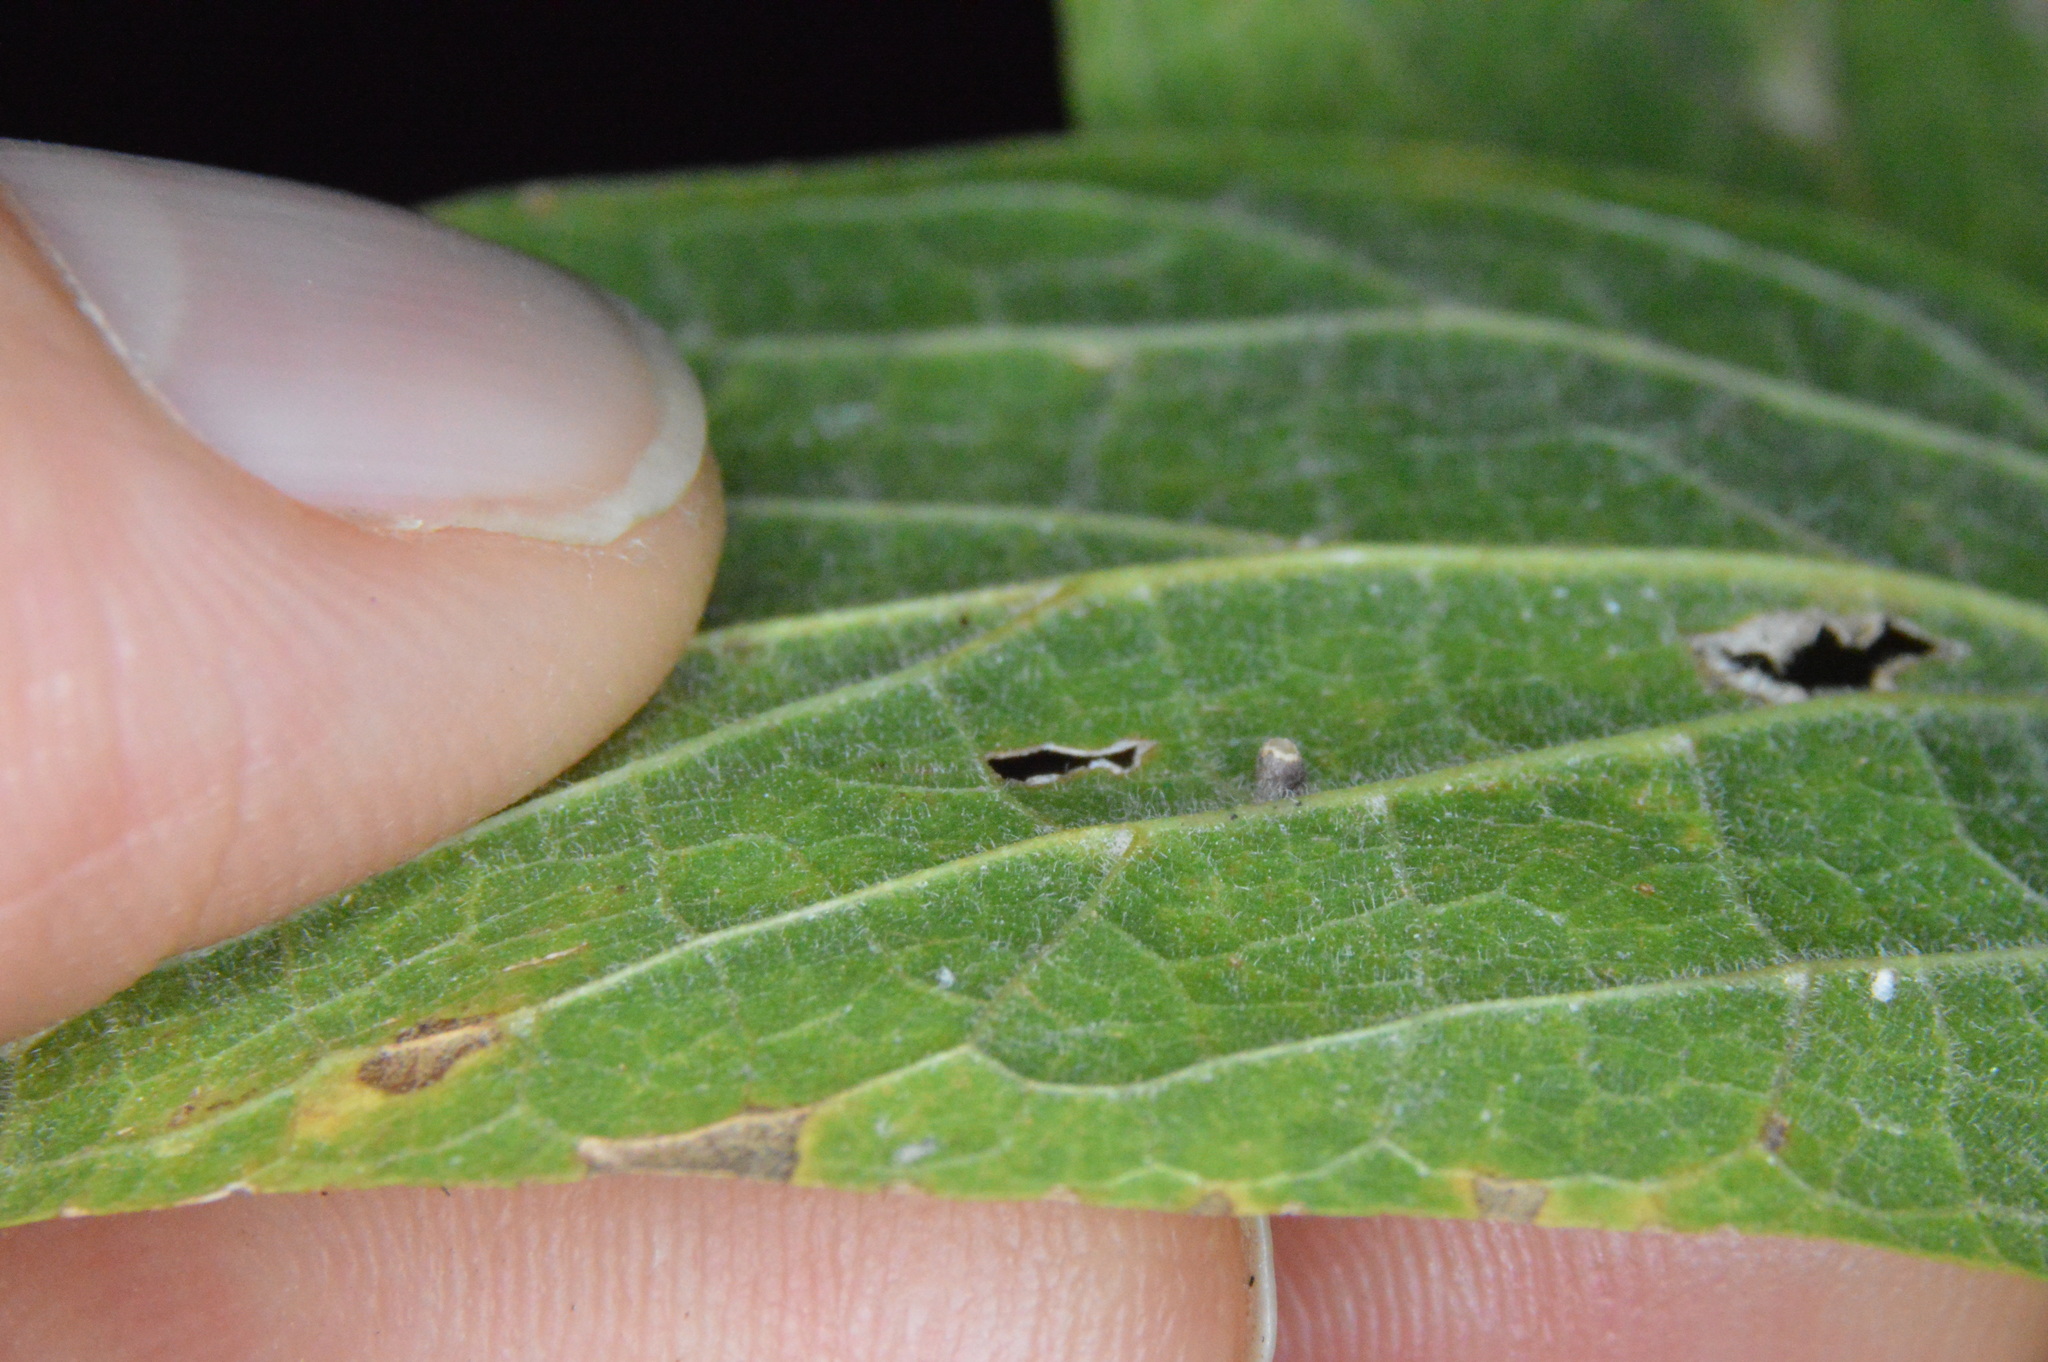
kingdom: Animalia
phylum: Arthropoda
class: Insecta
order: Diptera
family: Cecidomyiidae
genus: Celticecis
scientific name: Celticecis cupiformis
